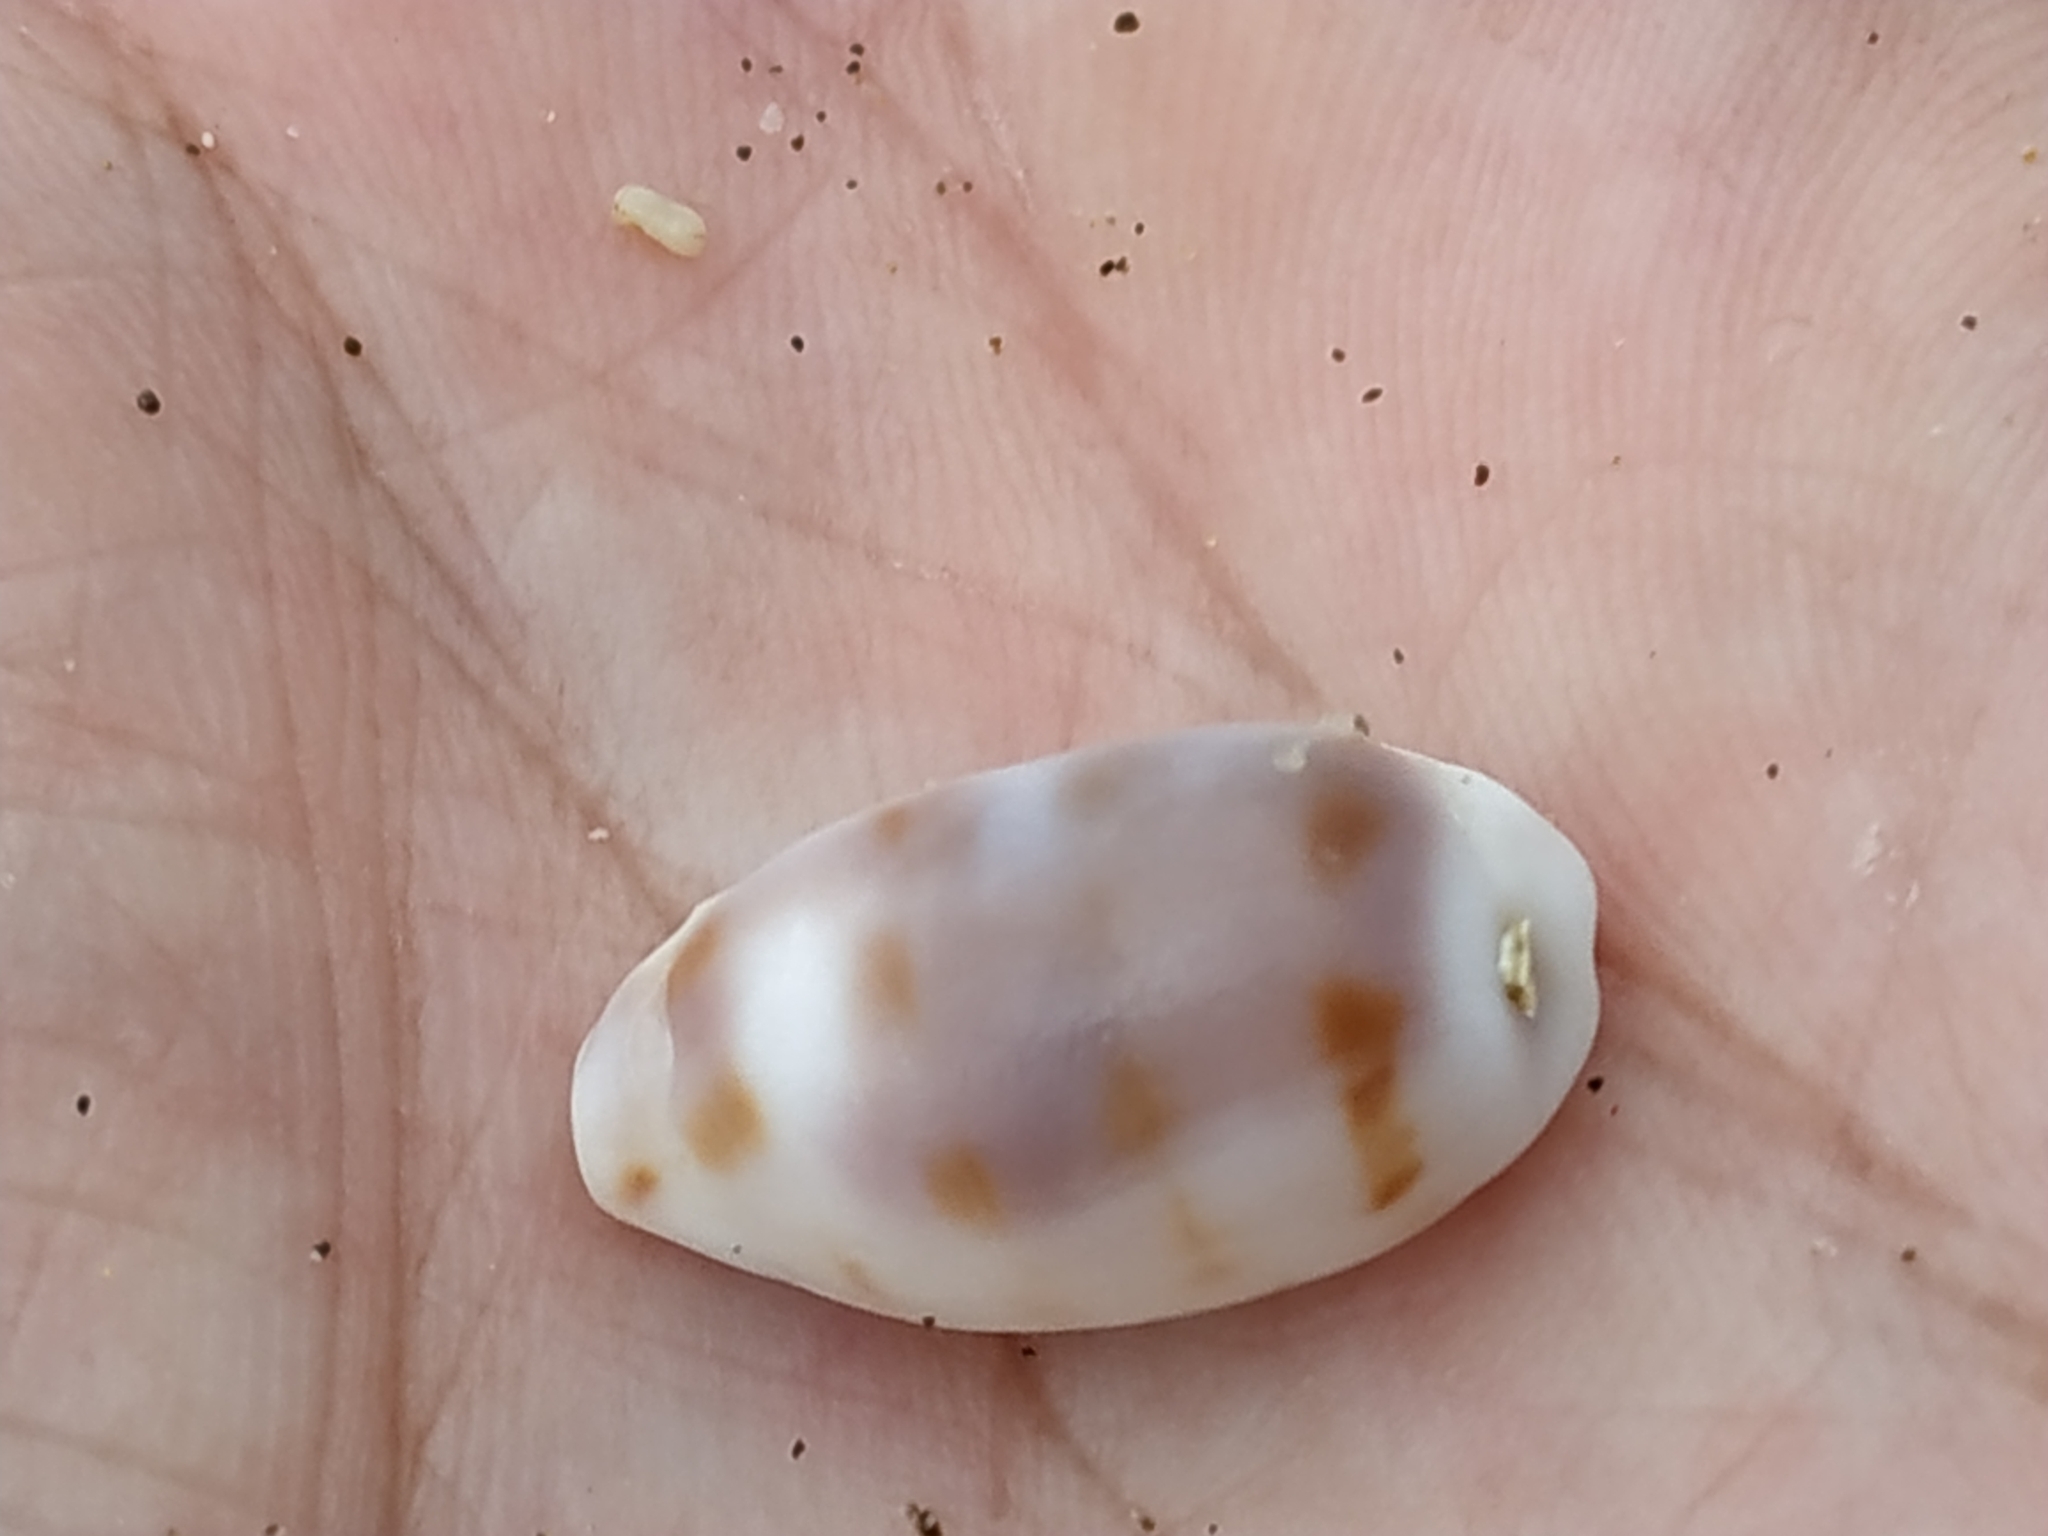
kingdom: Animalia
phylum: Mollusca
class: Gastropoda
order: Littorinimorpha
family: Cypraeidae
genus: Blasicrura
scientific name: Blasicrura pallidula
